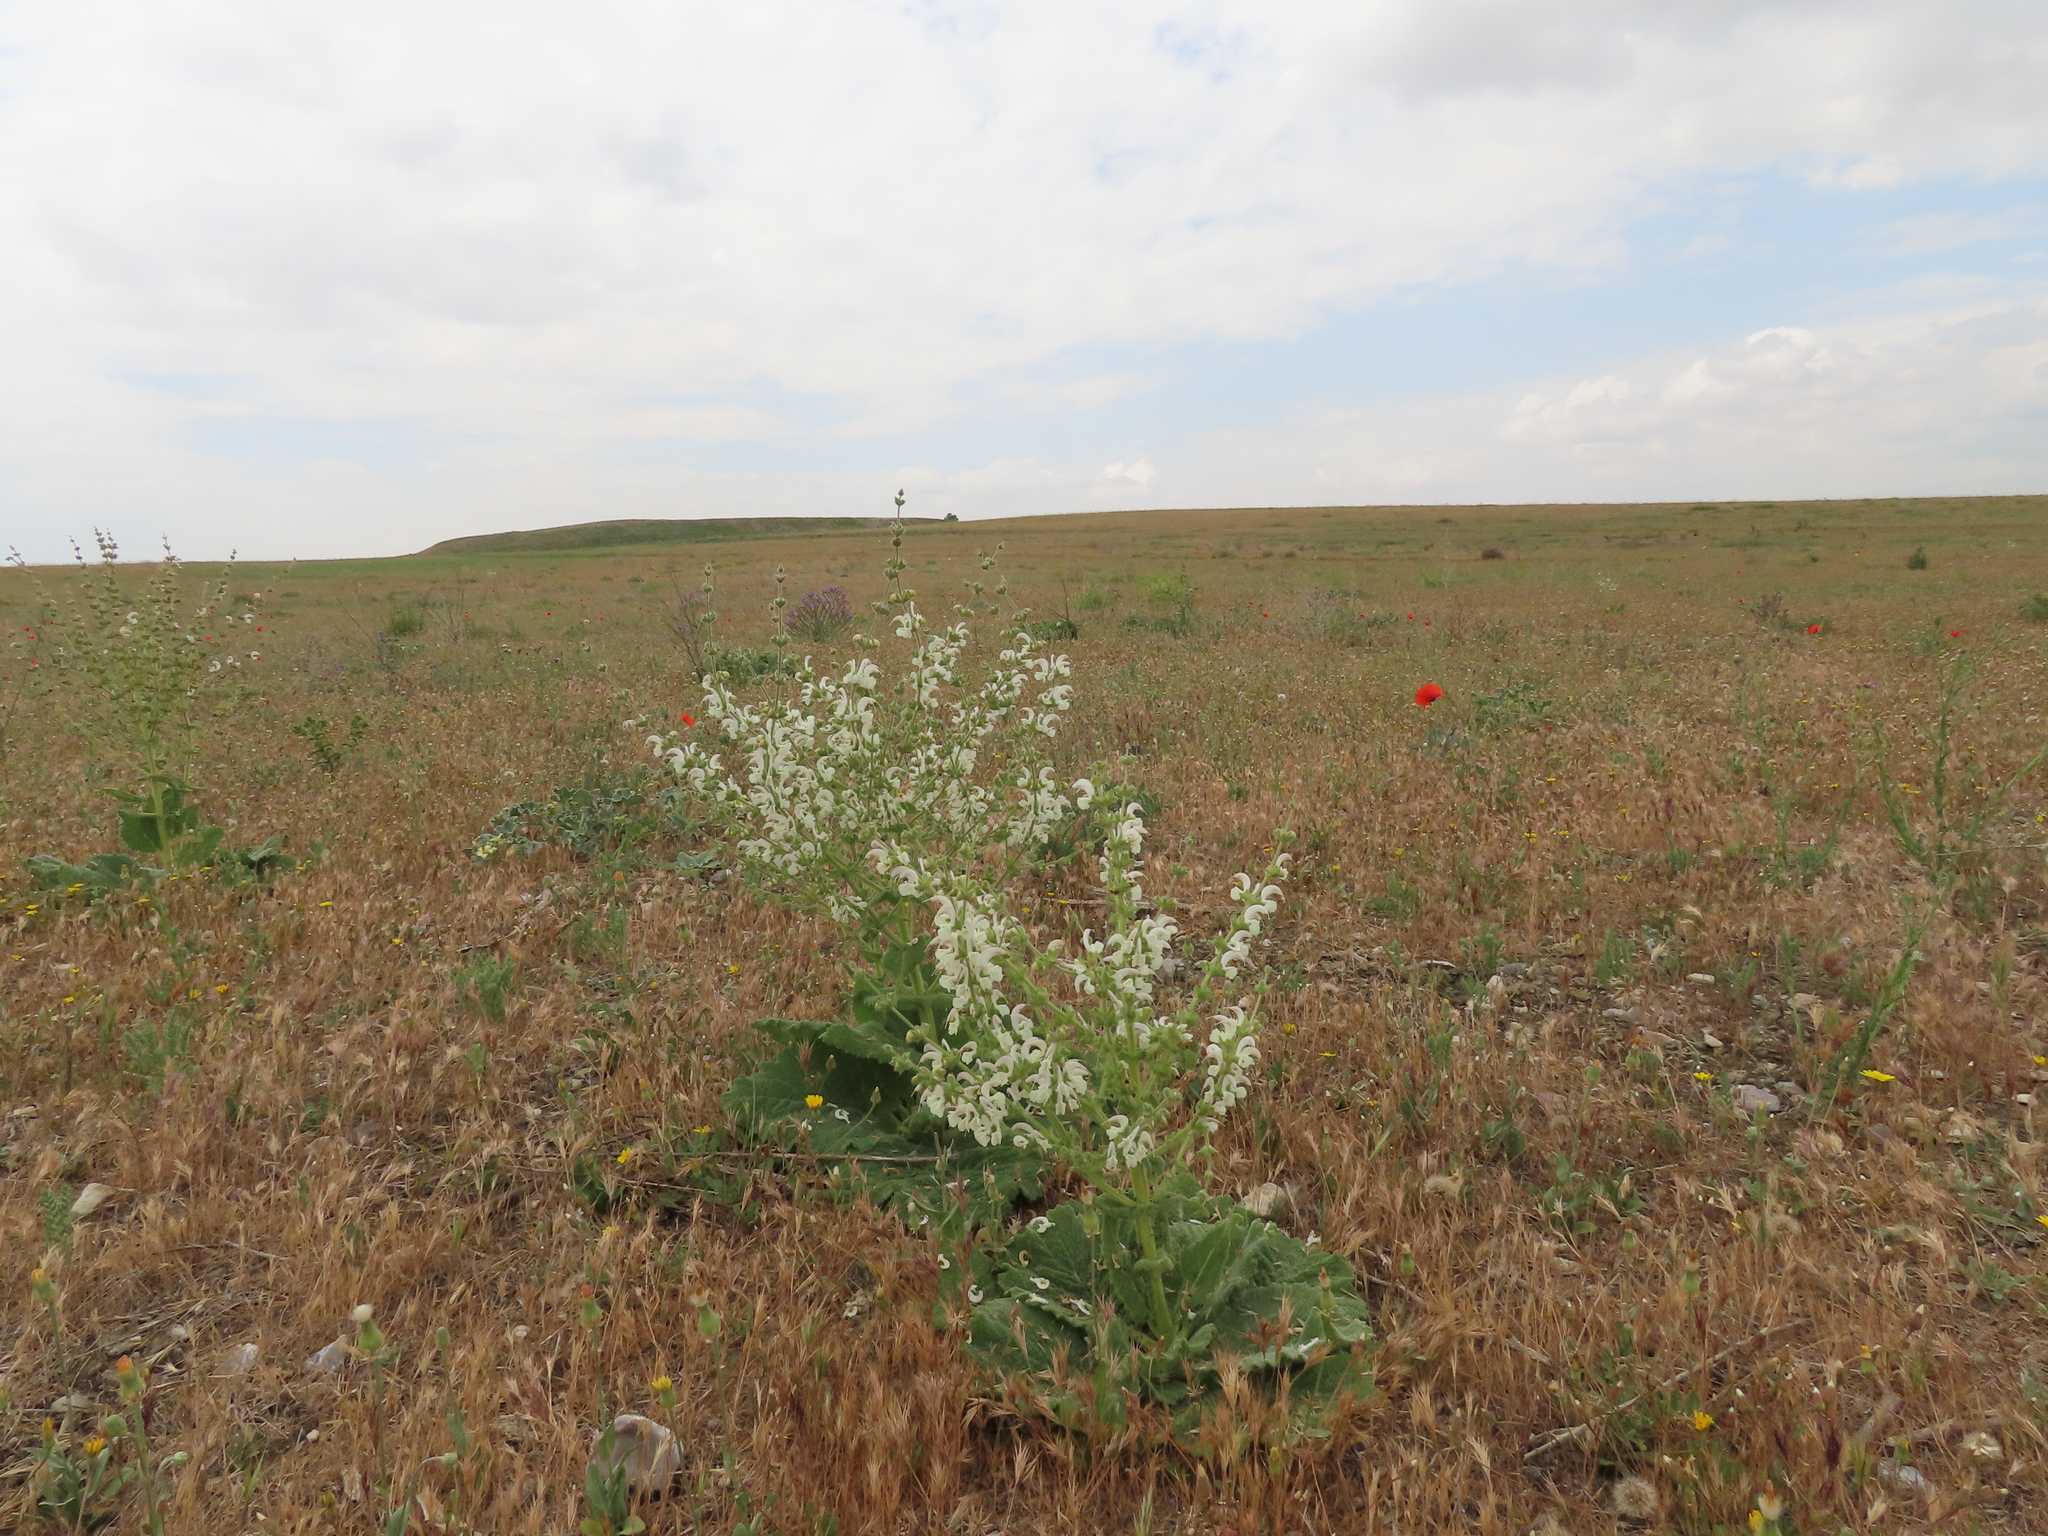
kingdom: Plantae
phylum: Tracheophyta
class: Magnoliopsida
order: Lamiales
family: Lamiaceae
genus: Salvia
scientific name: Salvia argentea
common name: Silver sage
